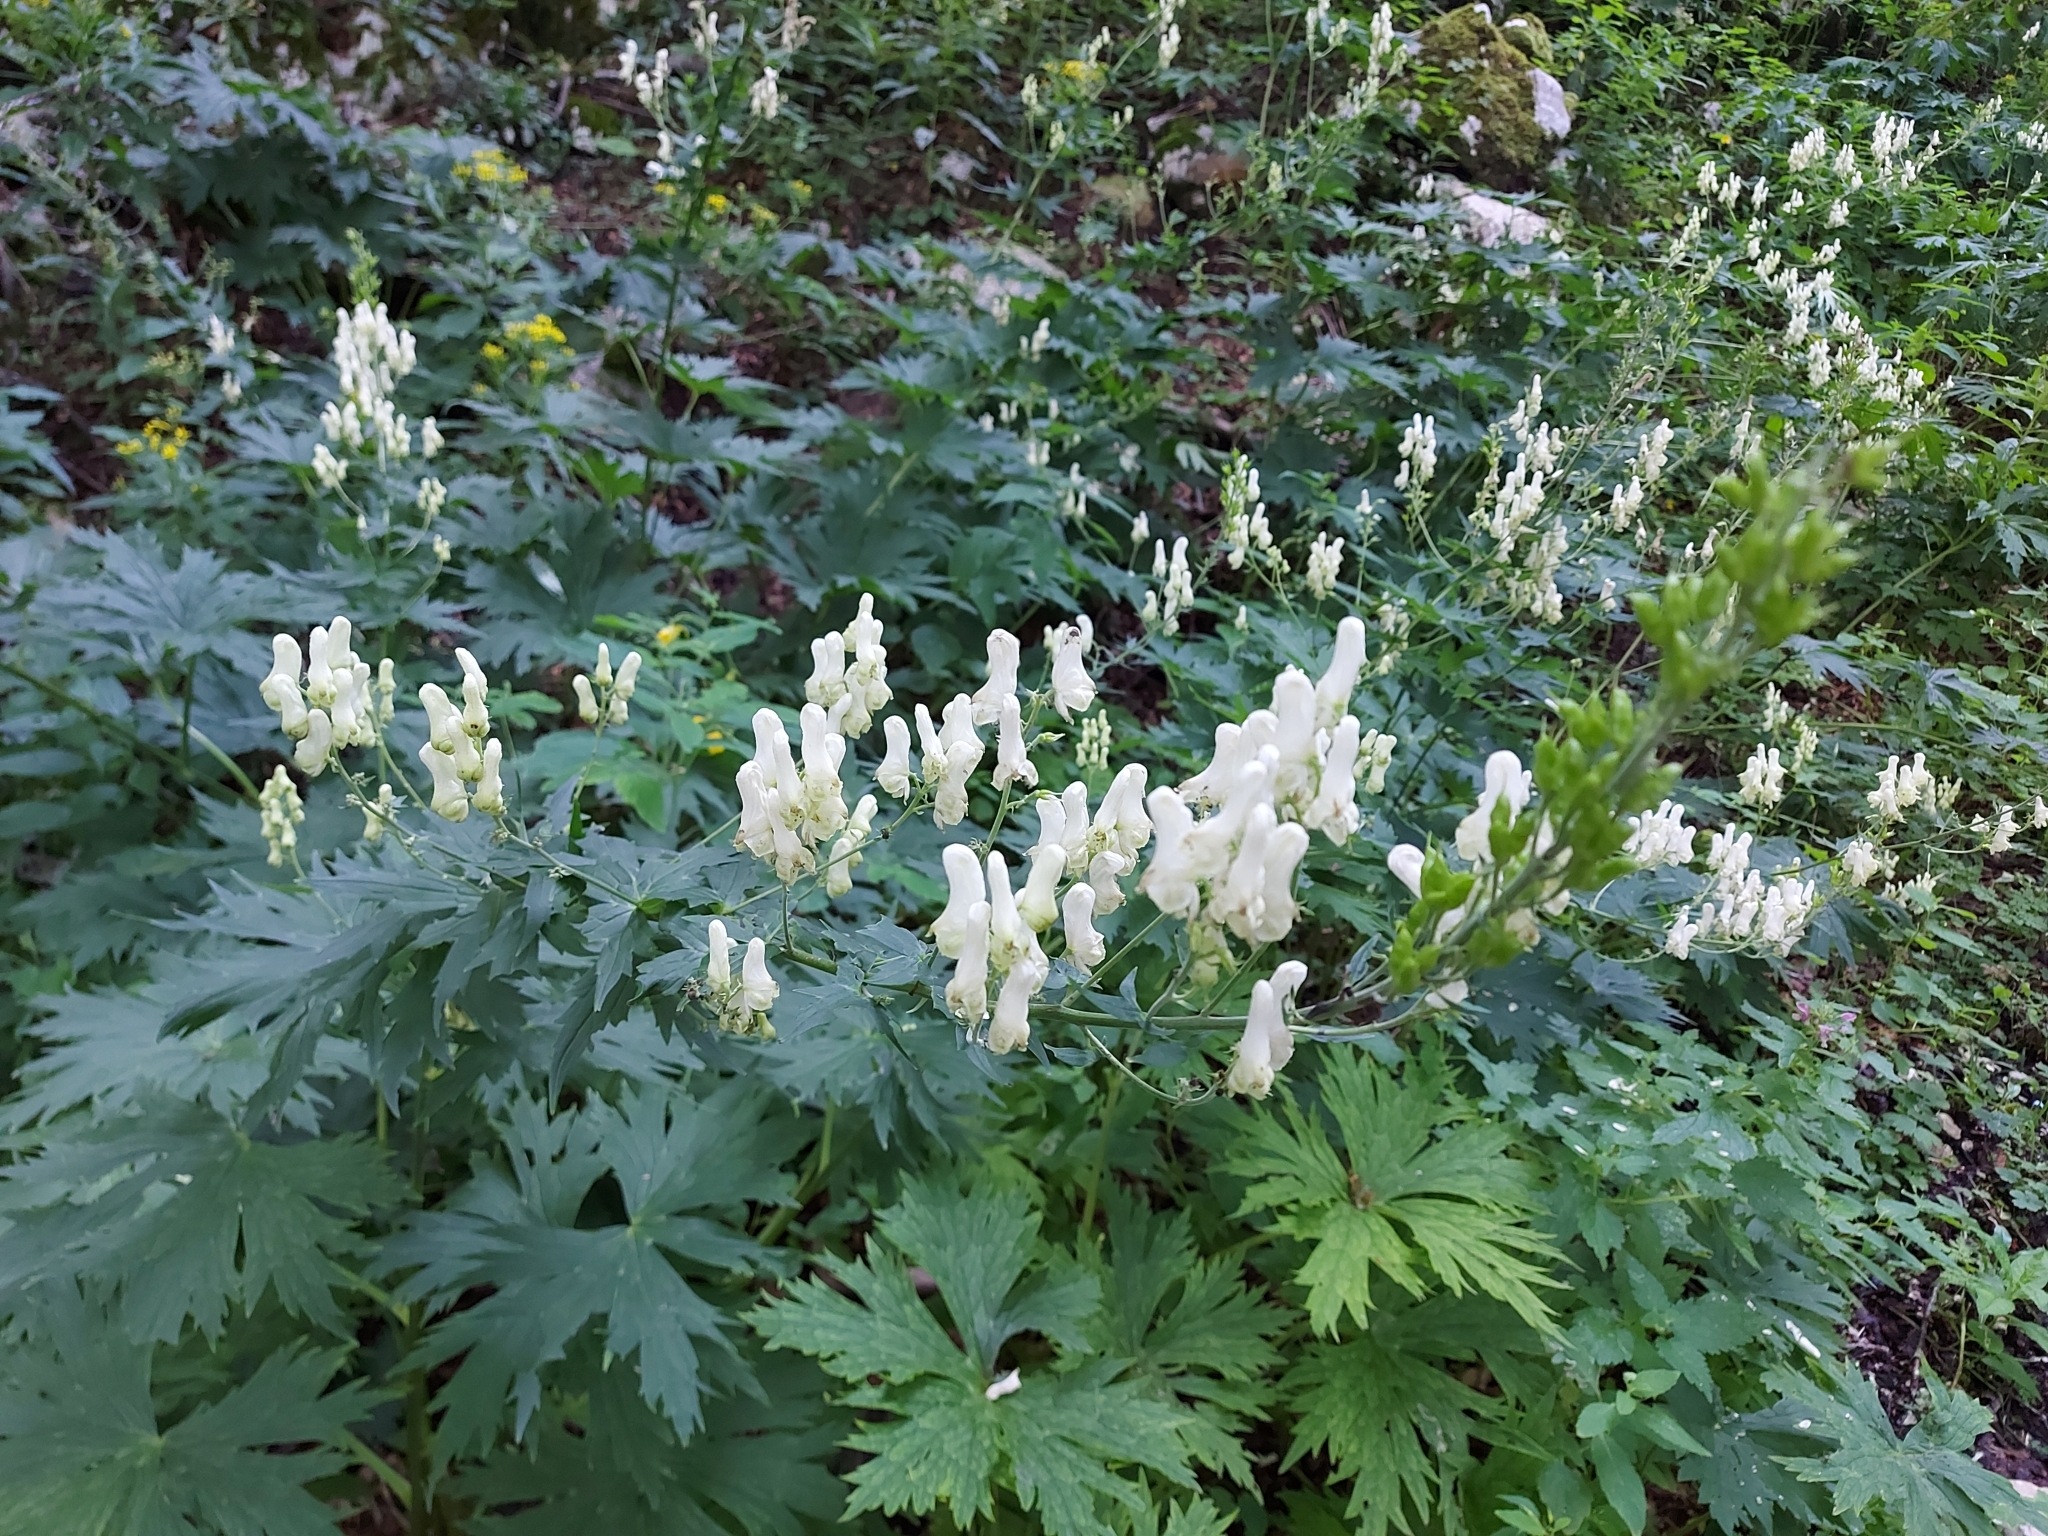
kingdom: Plantae
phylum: Tracheophyta
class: Magnoliopsida
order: Ranunculales
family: Ranunculaceae
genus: Aconitum
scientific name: Aconitum lycoctonum
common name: Wolf's-bane
